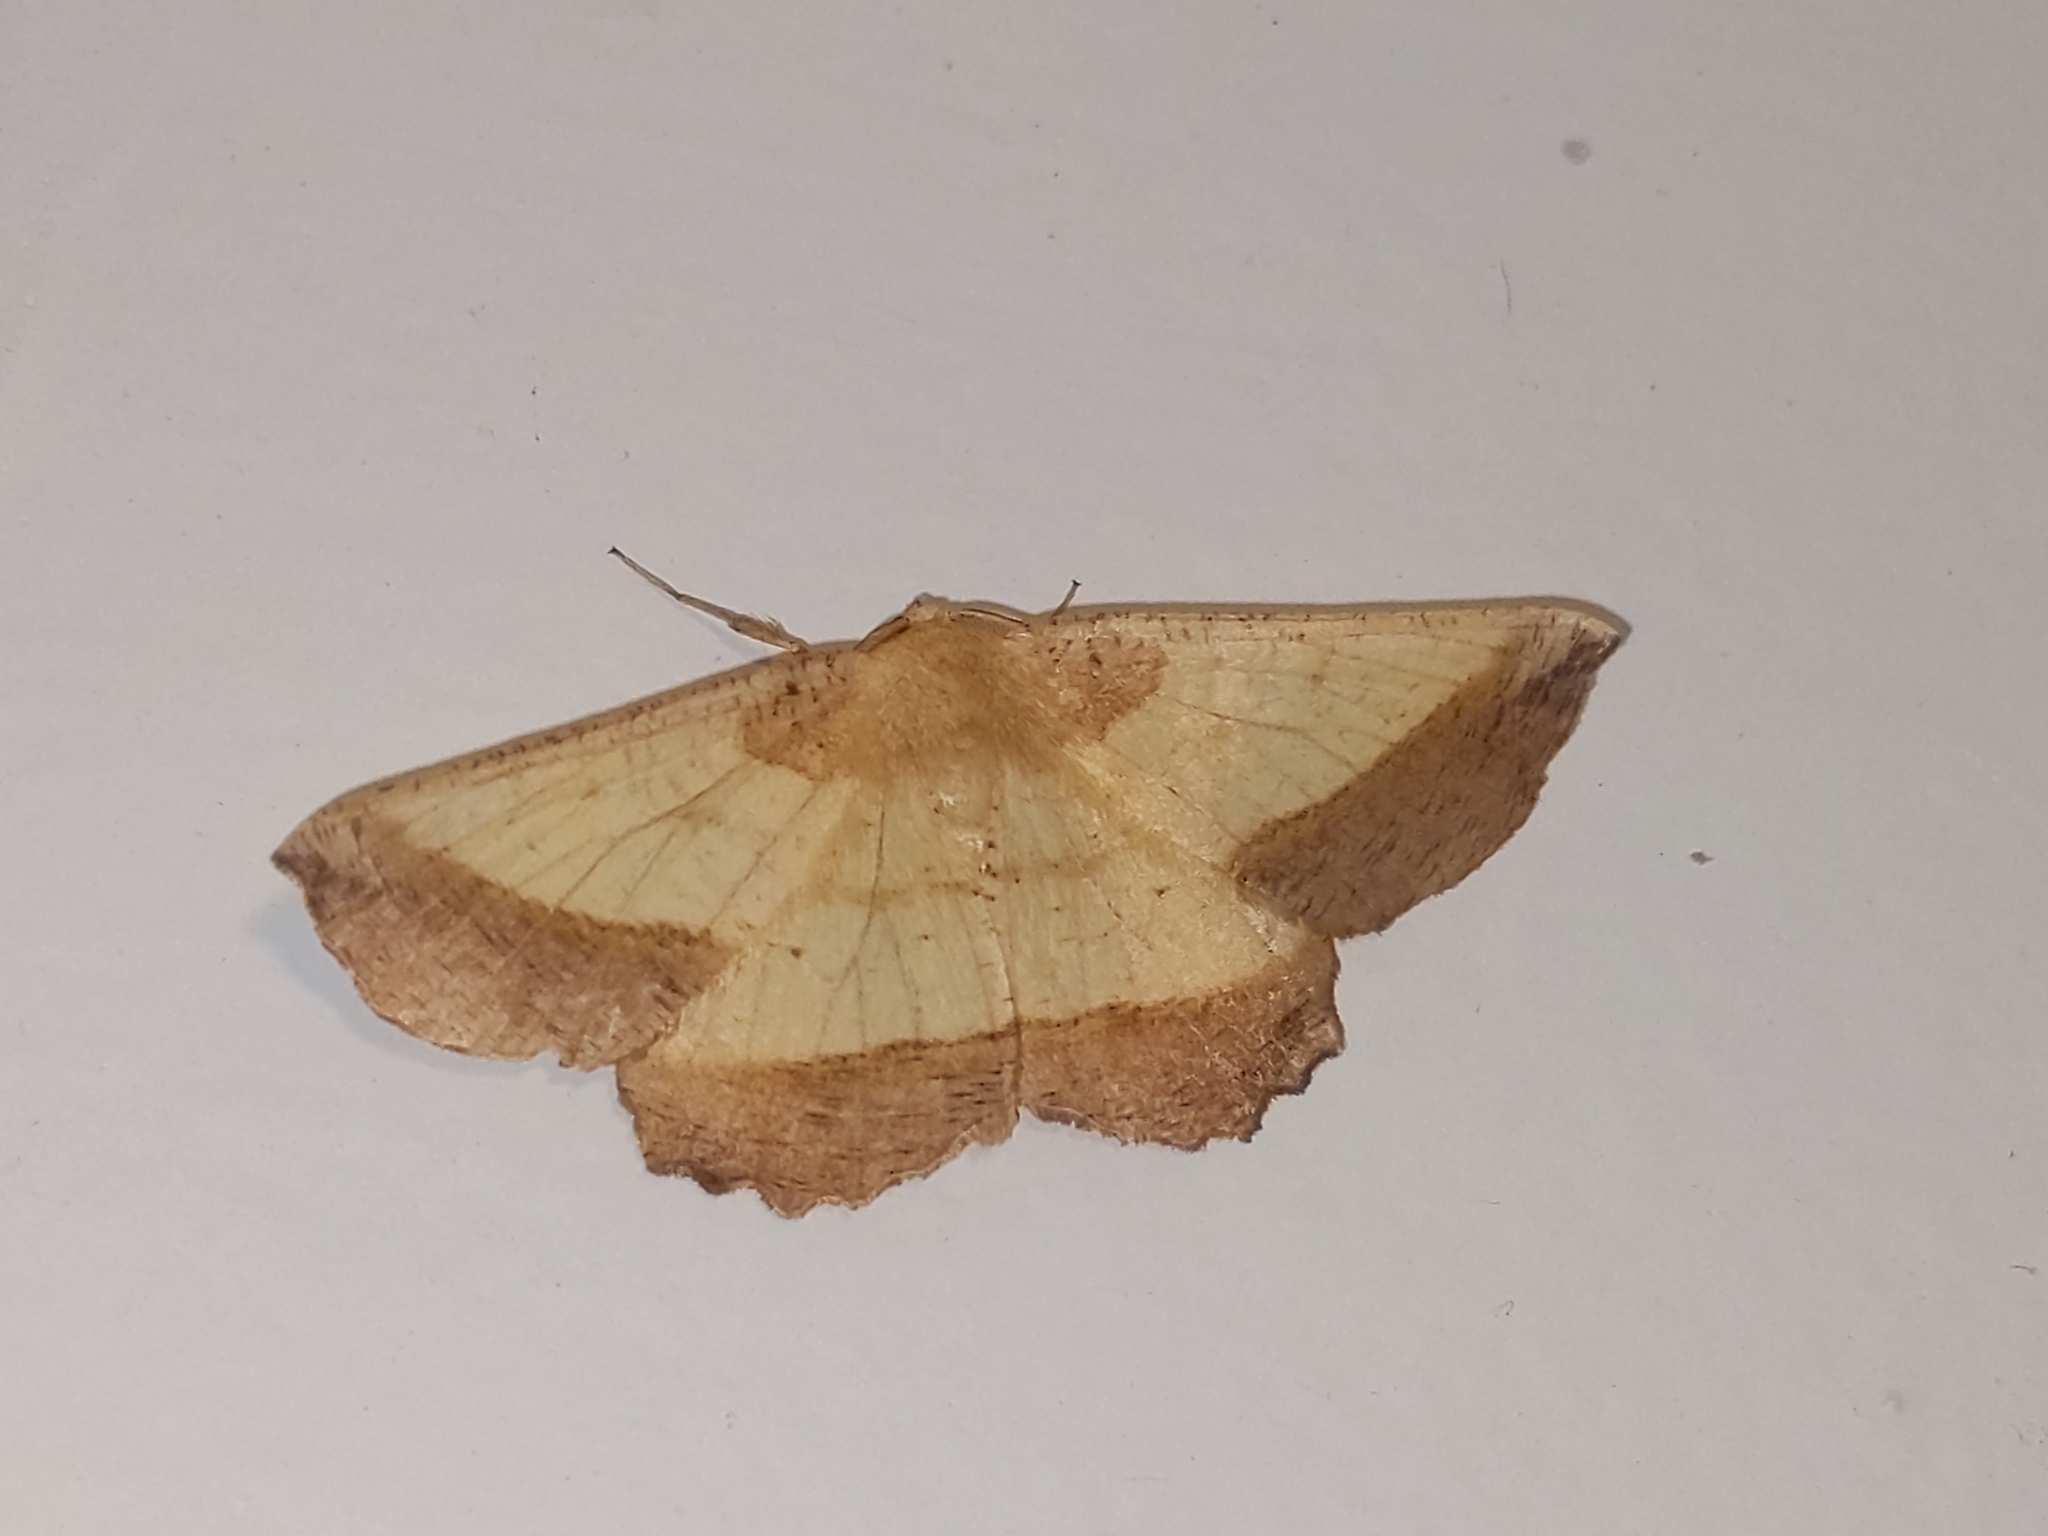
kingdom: Animalia
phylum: Arthropoda
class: Insecta
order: Lepidoptera
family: Geometridae
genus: Euchlaena
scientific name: Euchlaena serrata
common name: Saw wing
